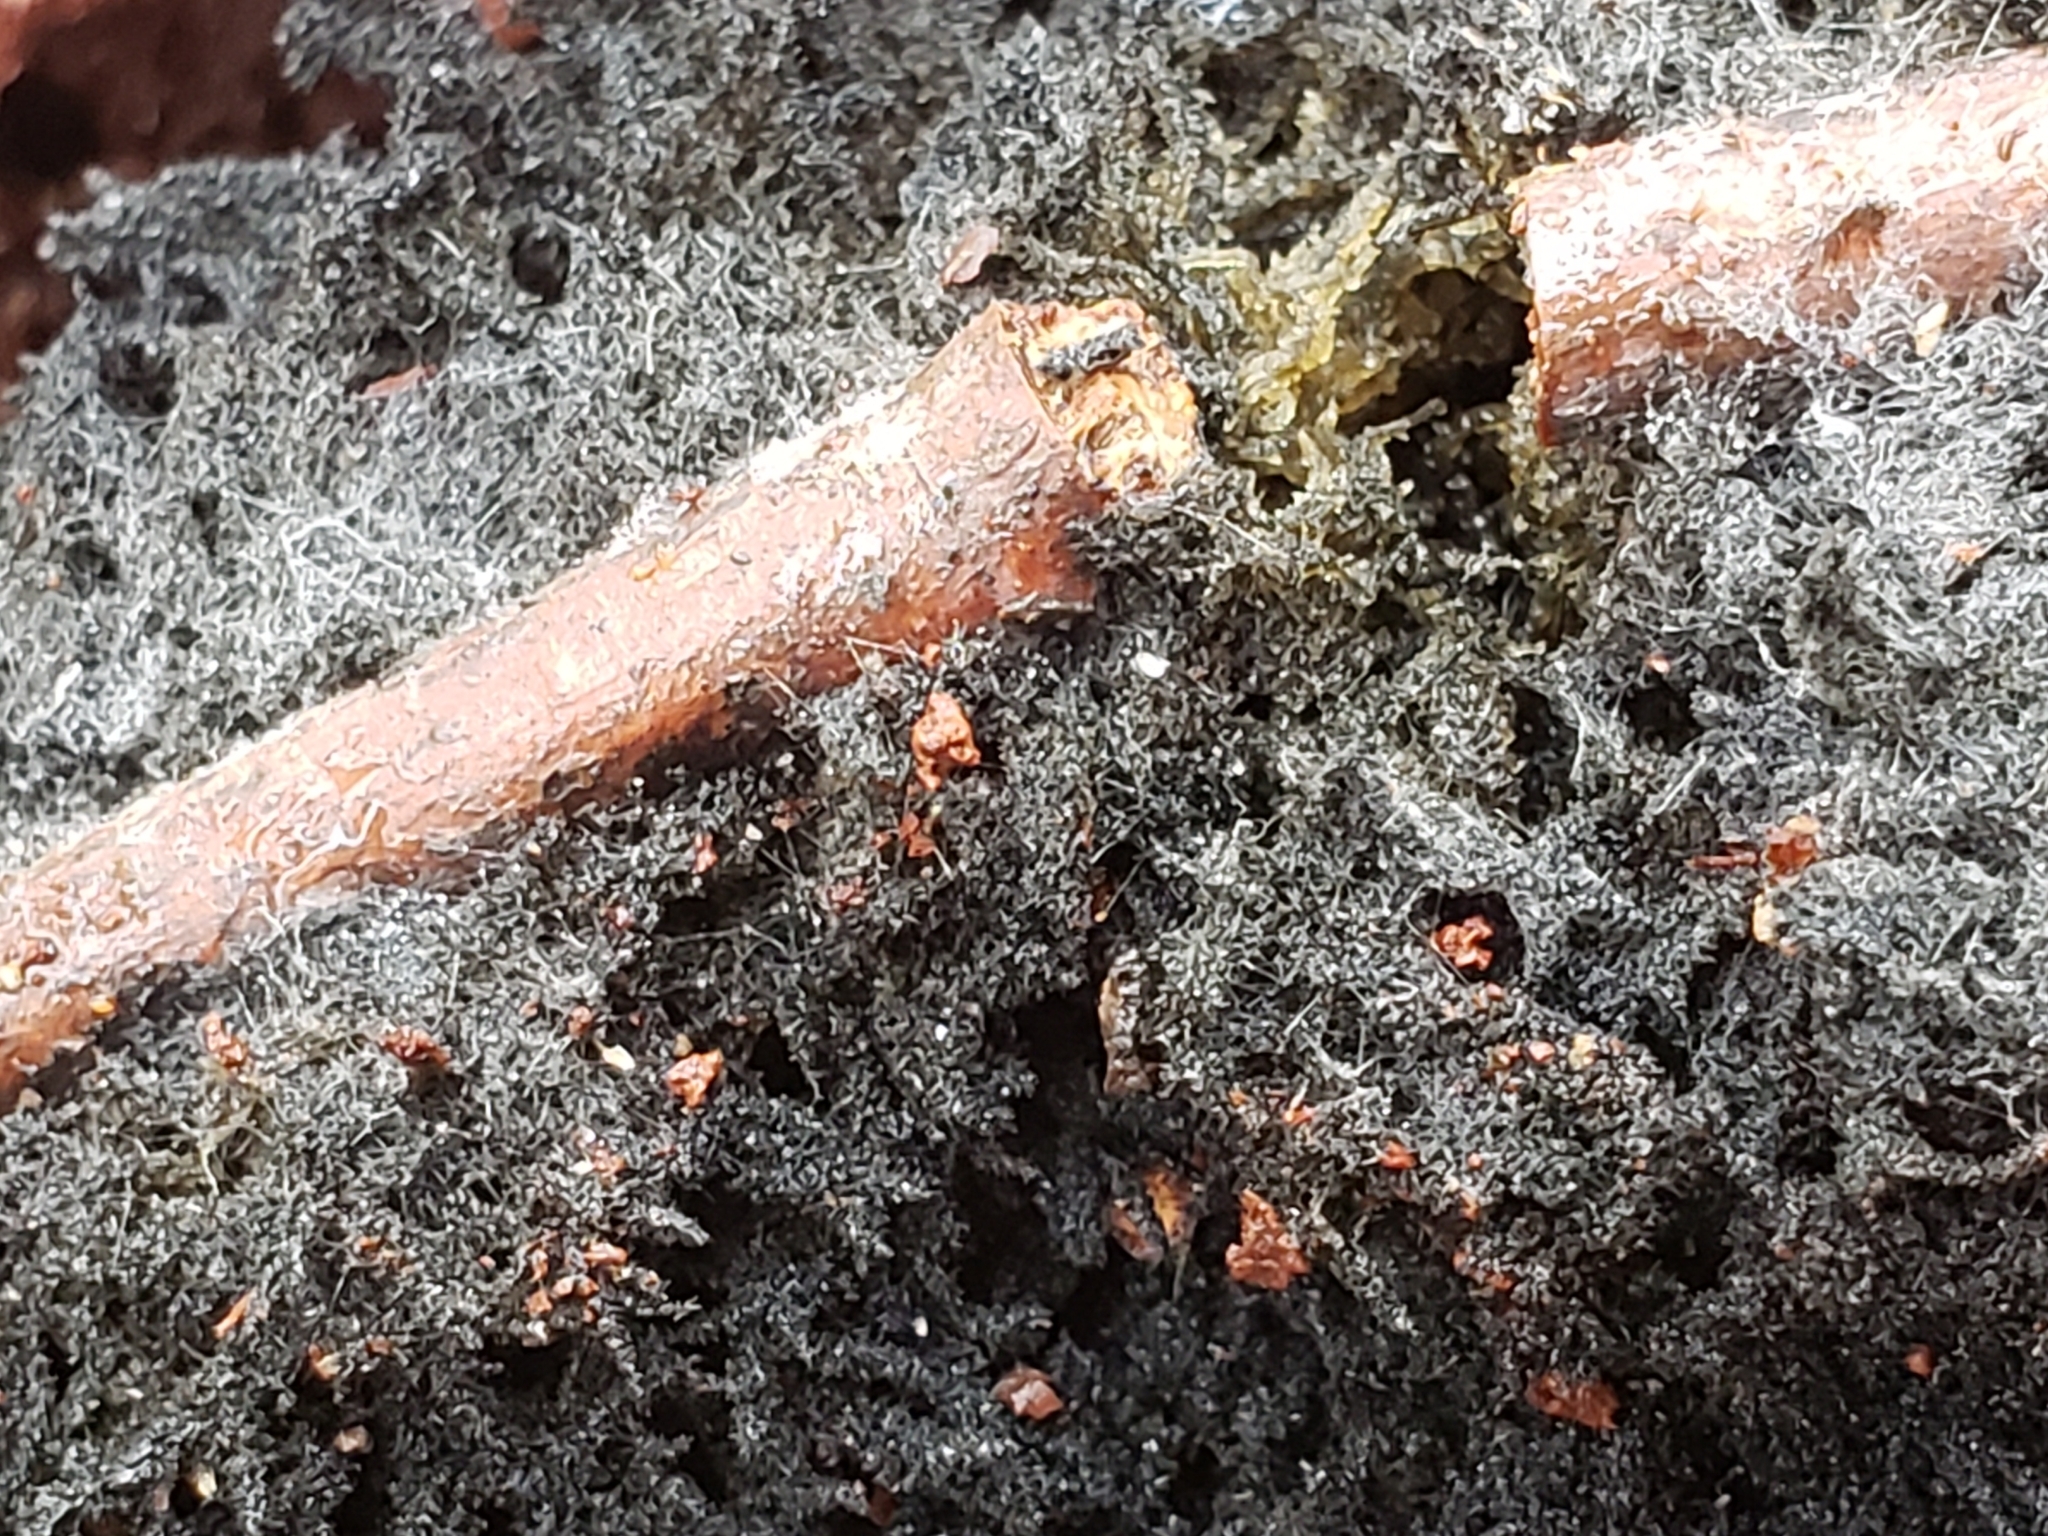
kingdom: Fungi
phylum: Ascomycota
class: Dothideomycetes
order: Capnodiales
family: Capnodiaceae
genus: Scorias
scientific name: Scorias spongiosa
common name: Black sooty mold
